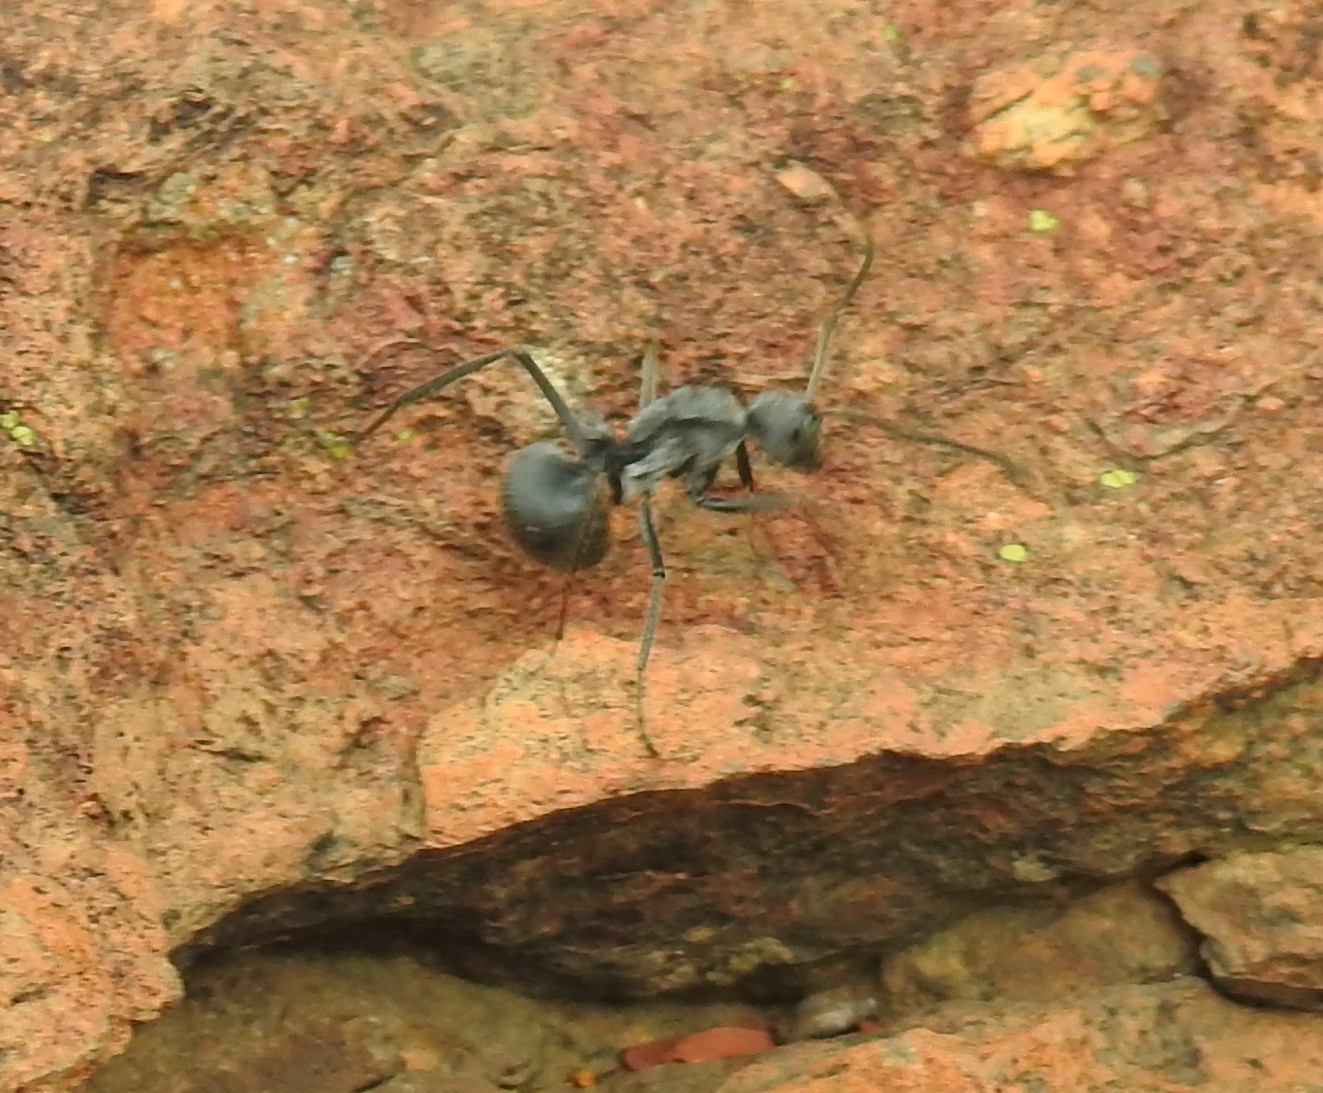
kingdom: Animalia
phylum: Arthropoda
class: Insecta
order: Hymenoptera
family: Formicidae
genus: Polyrhachis
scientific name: Polyrhachis schistacea
